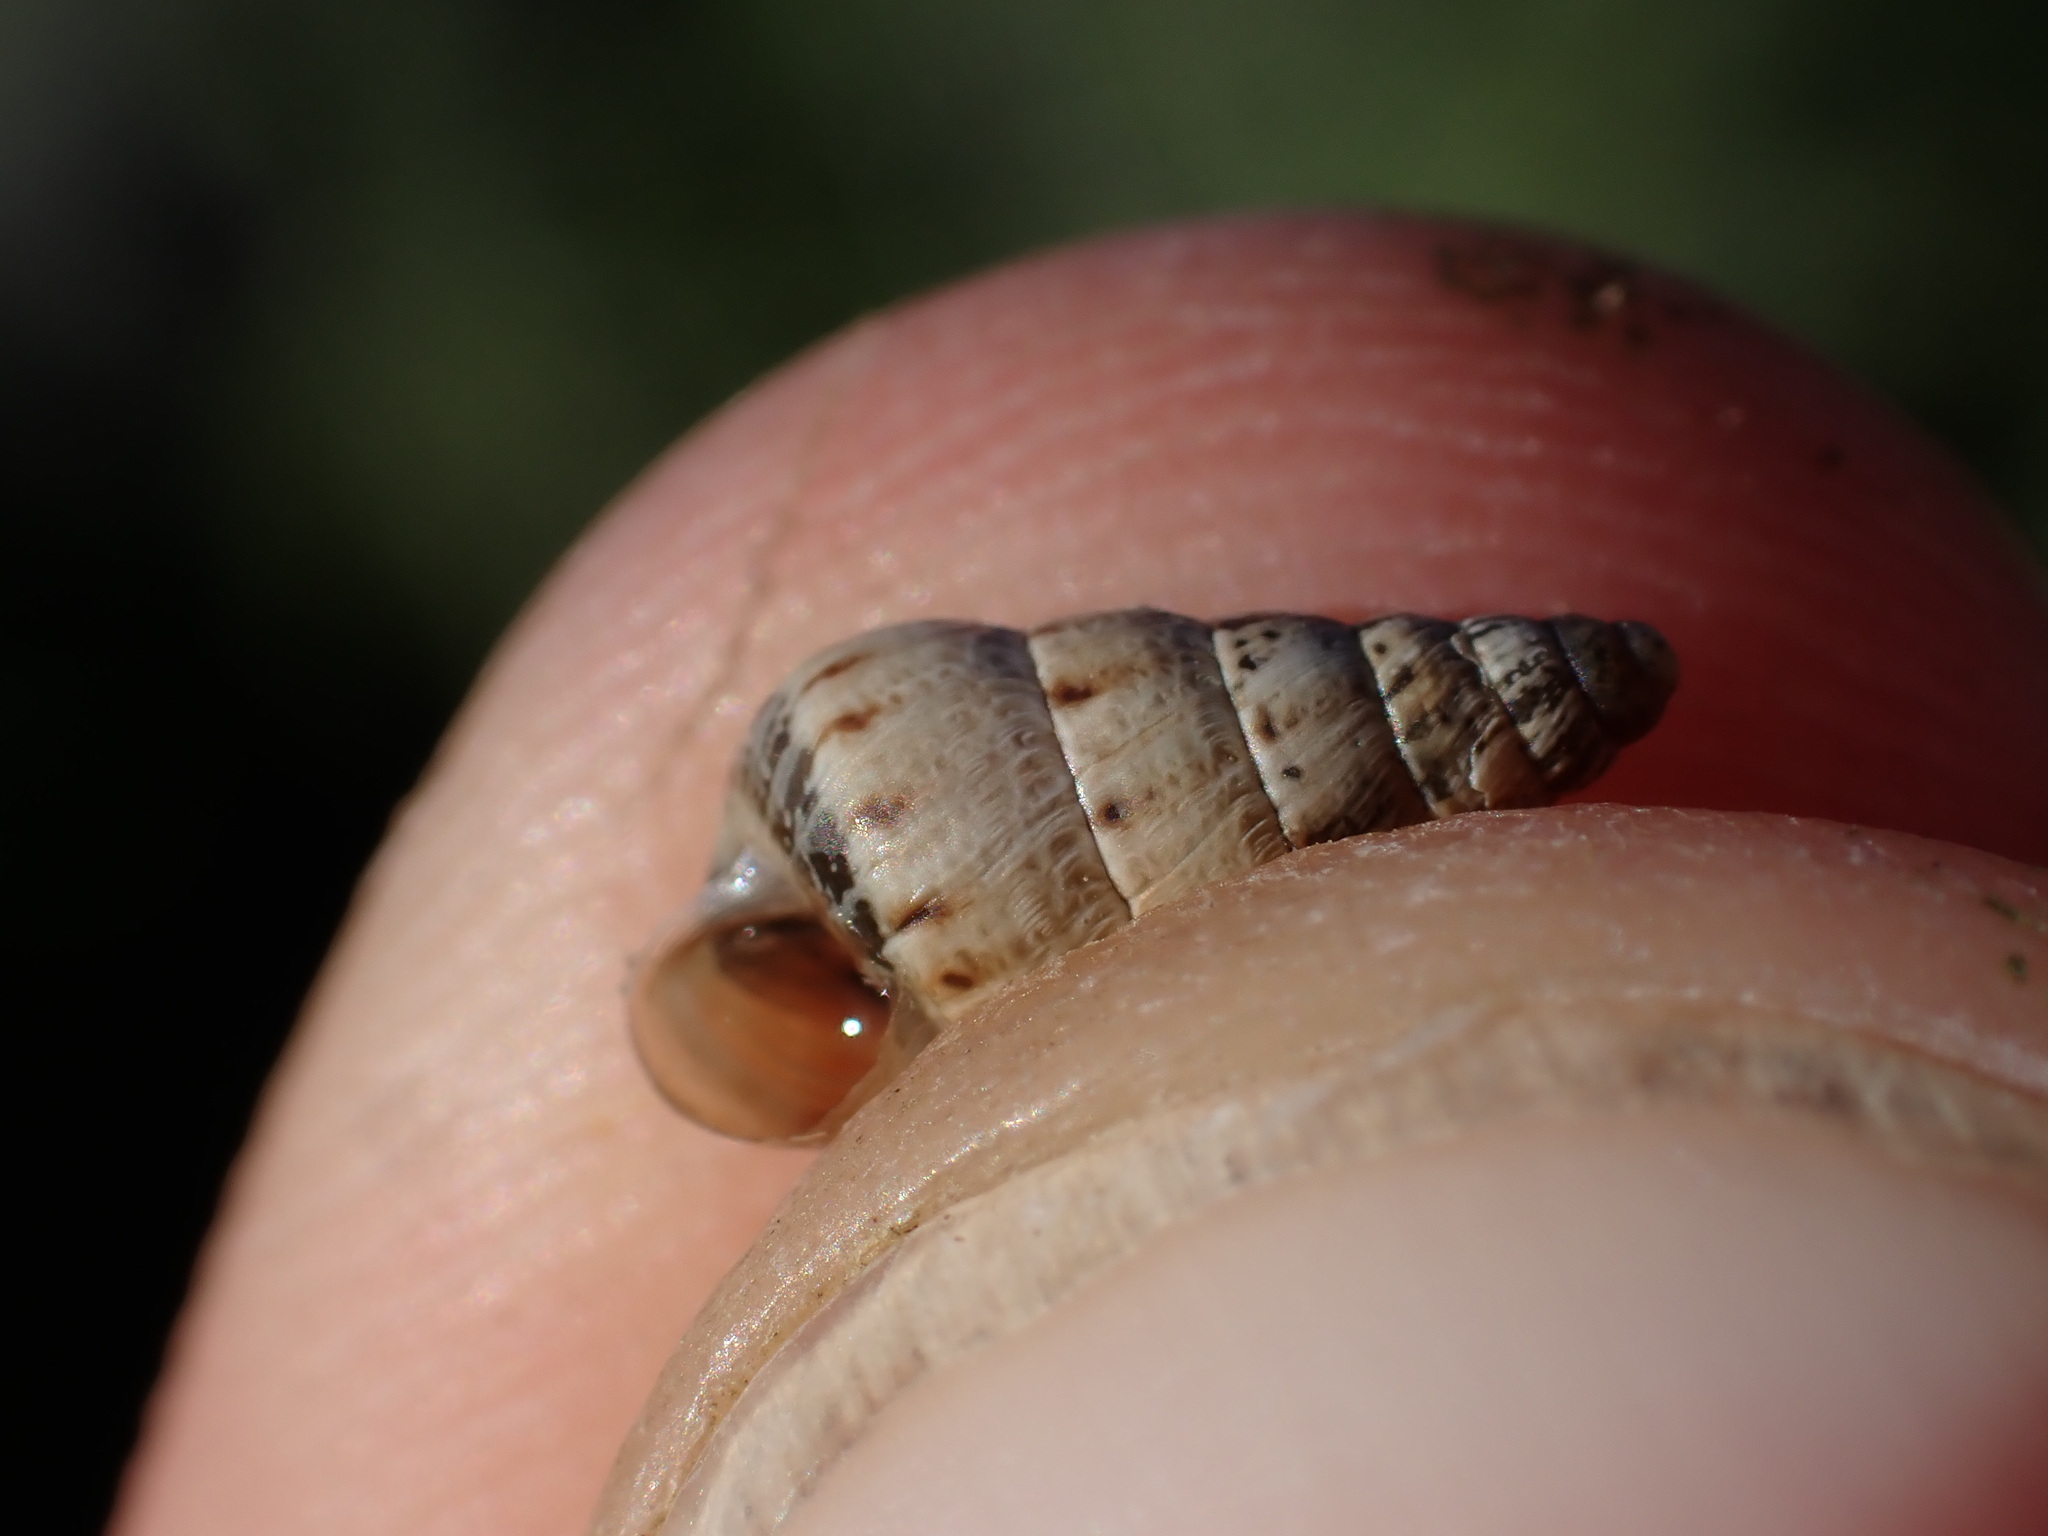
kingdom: Animalia
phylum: Mollusca
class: Gastropoda
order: Stylommatophora
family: Geomitridae
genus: Cochlicella
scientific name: Cochlicella acuta
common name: Pointed snail
